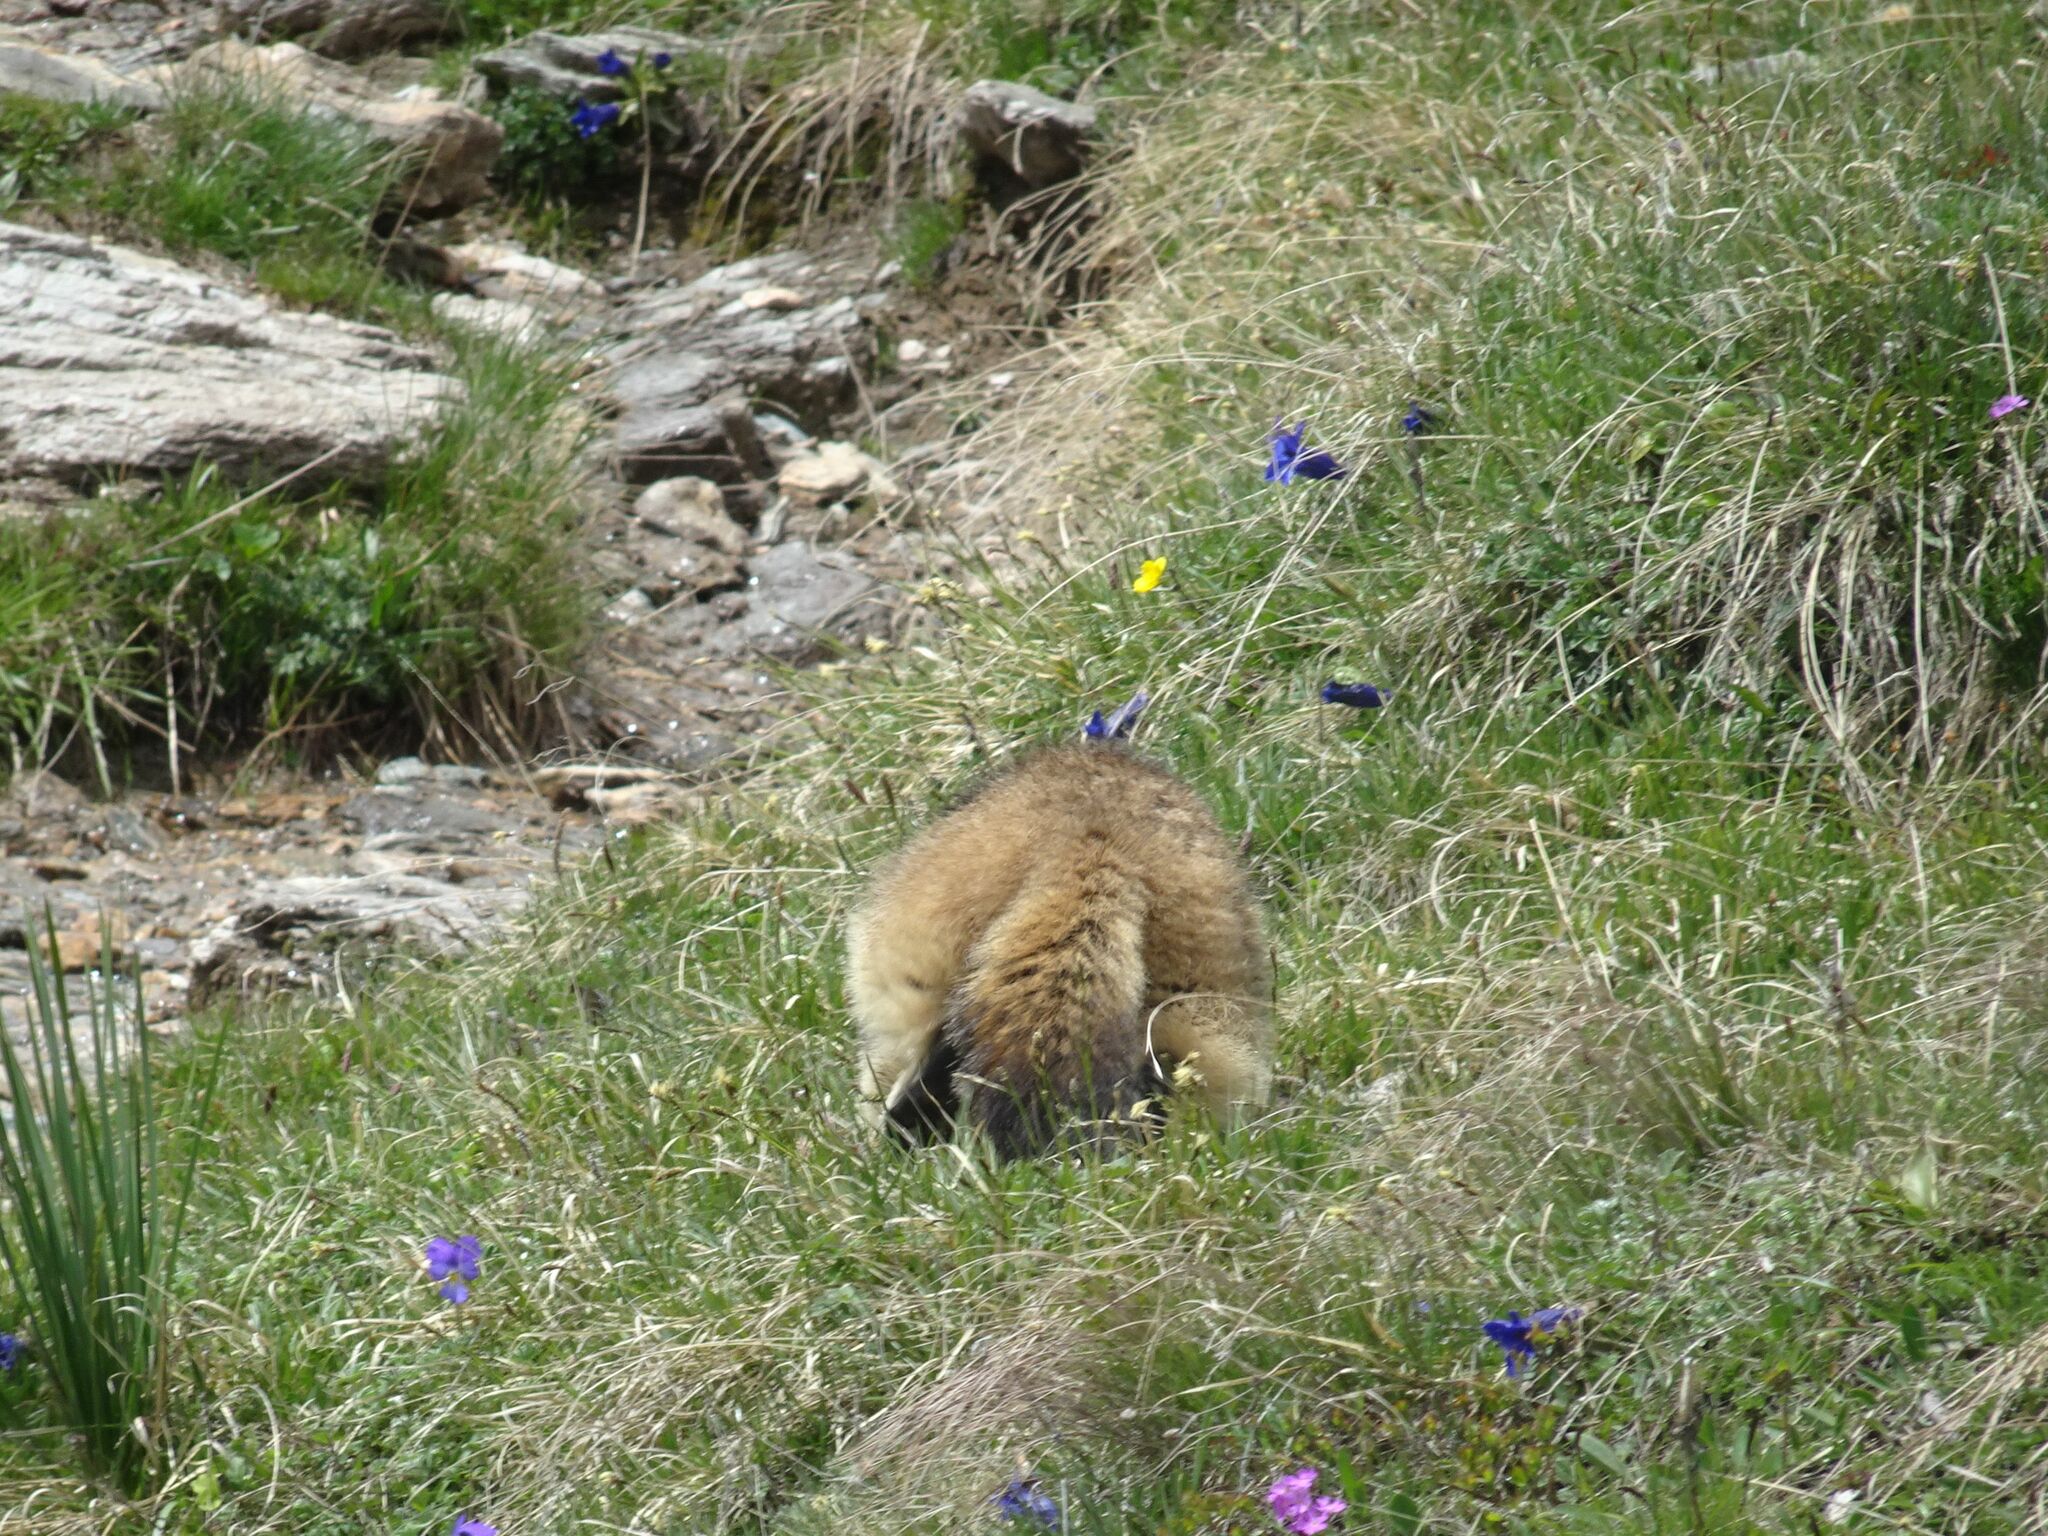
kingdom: Animalia
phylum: Chordata
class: Mammalia
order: Rodentia
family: Sciuridae
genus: Marmota
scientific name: Marmota marmota
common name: Alpine marmot
